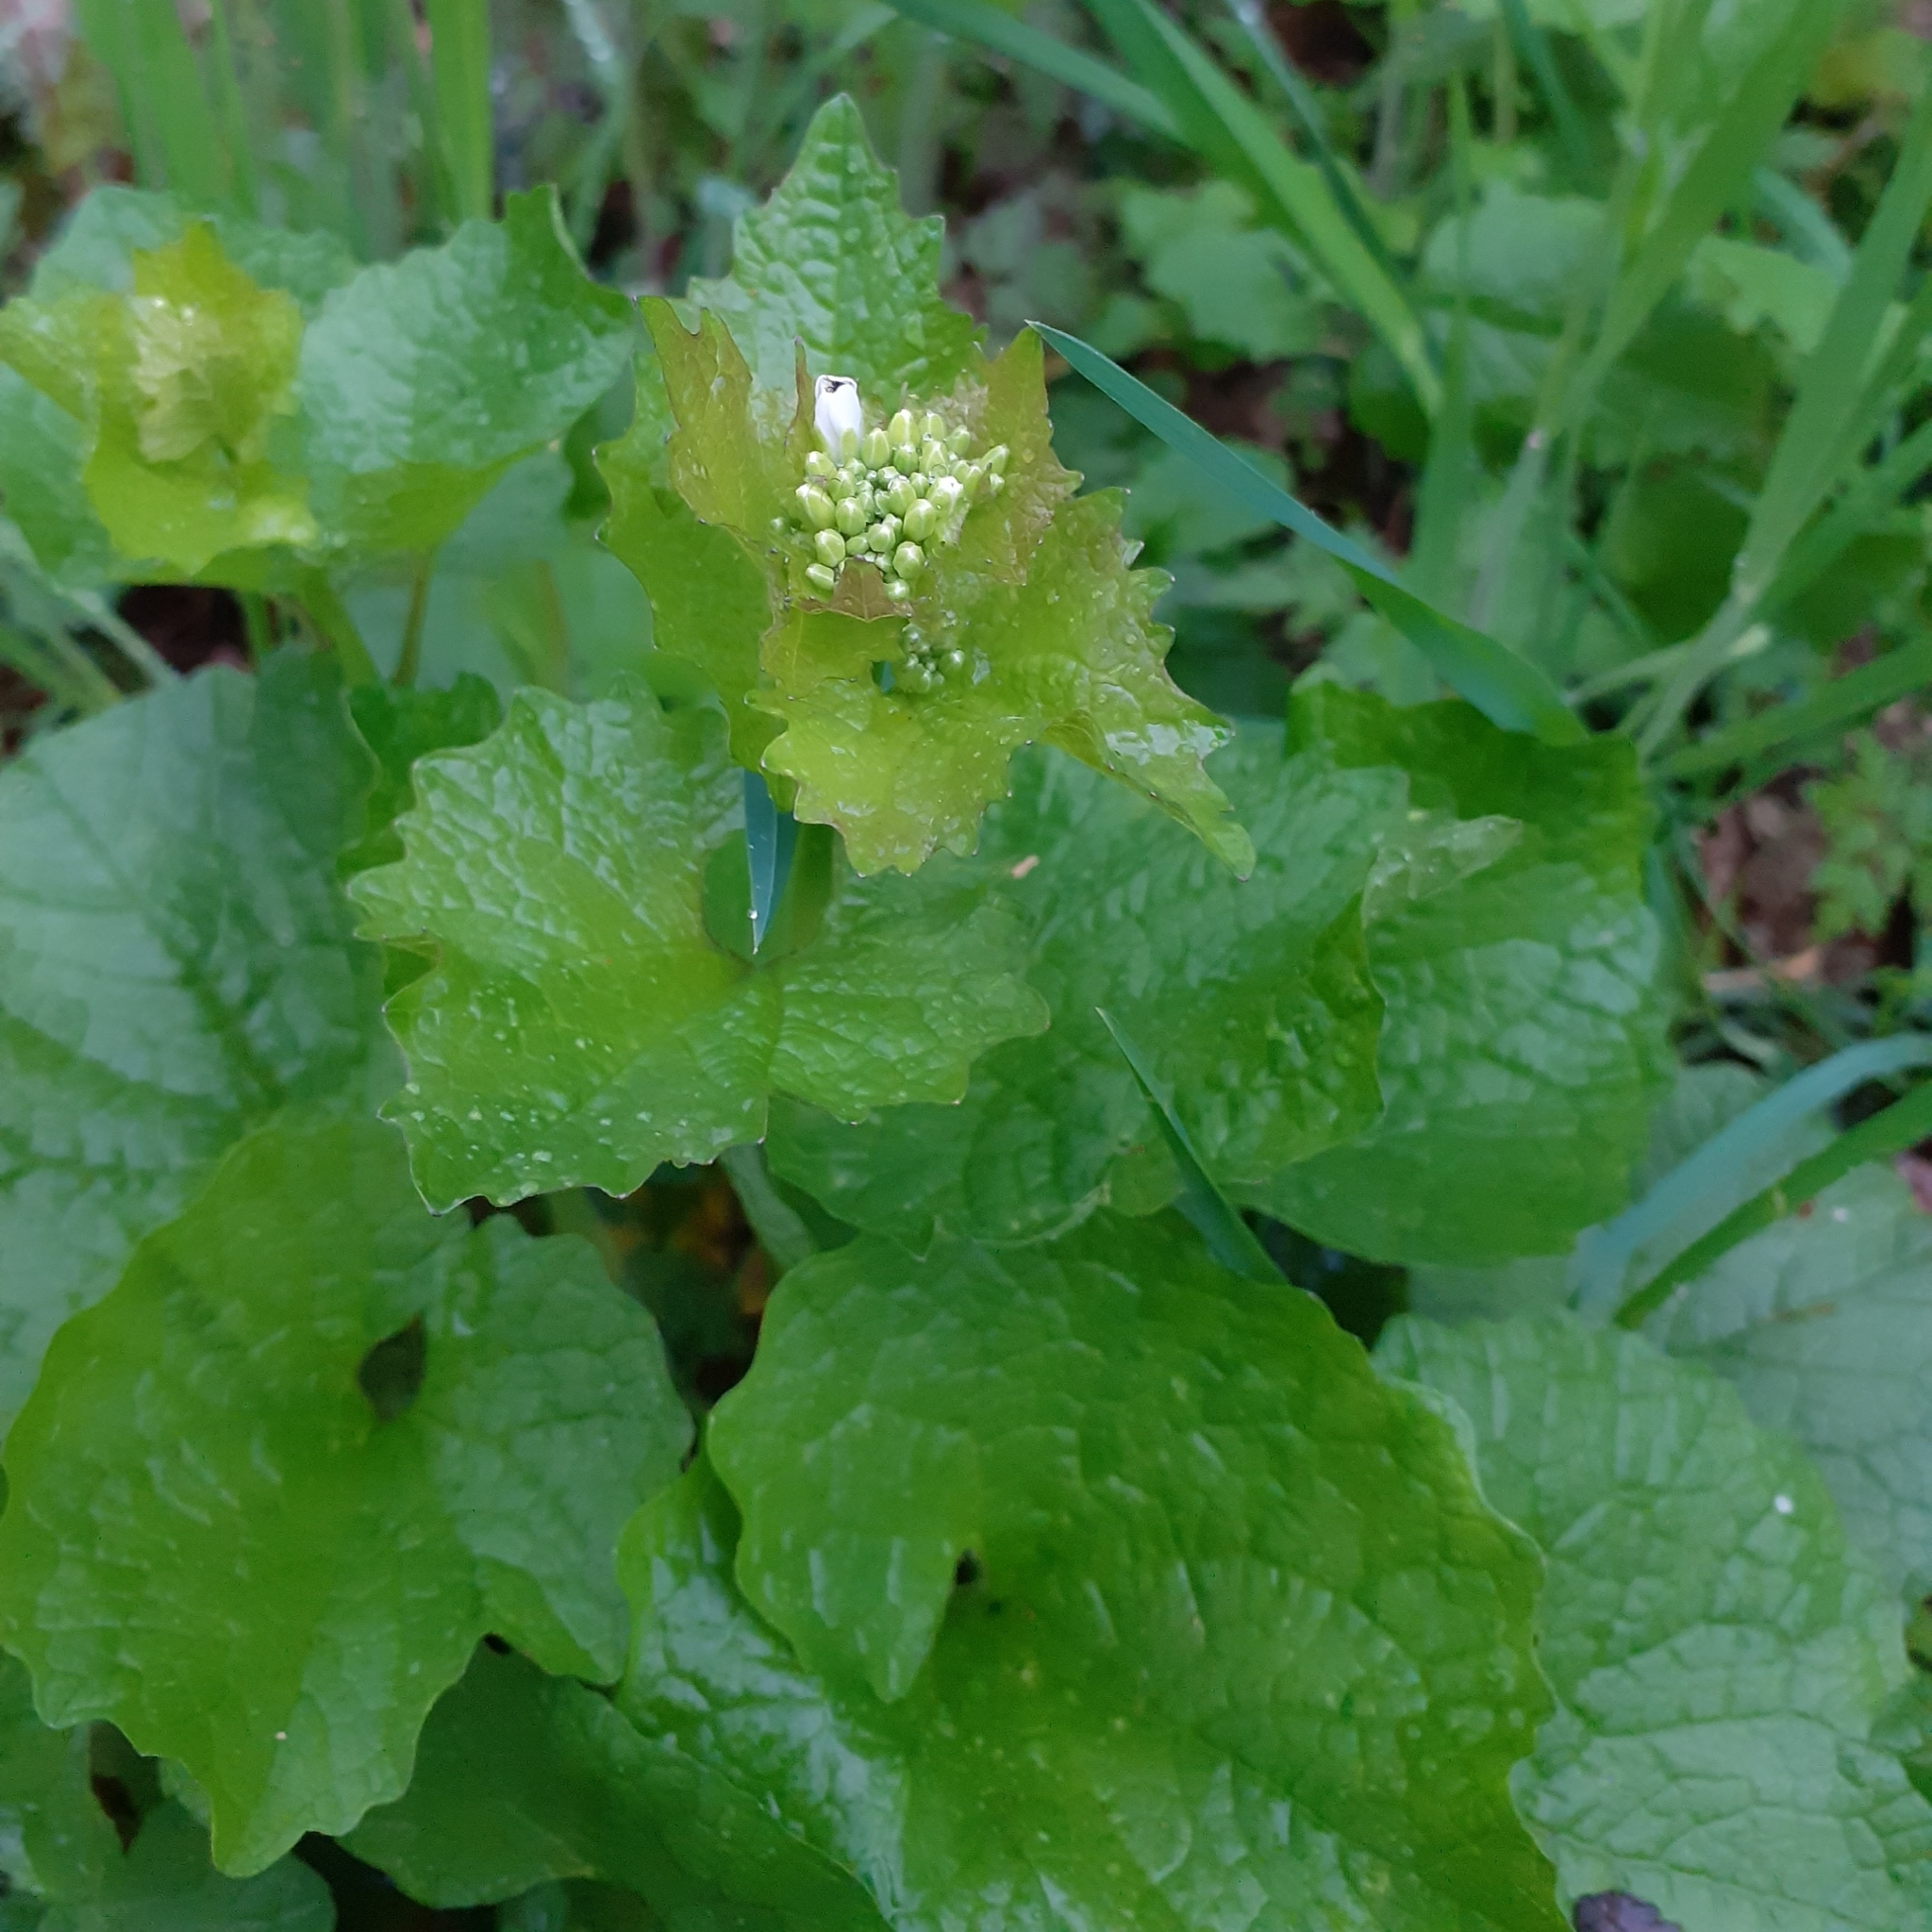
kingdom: Plantae
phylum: Tracheophyta
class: Magnoliopsida
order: Brassicales
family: Brassicaceae
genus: Alliaria
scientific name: Alliaria petiolata
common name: Garlic mustard
